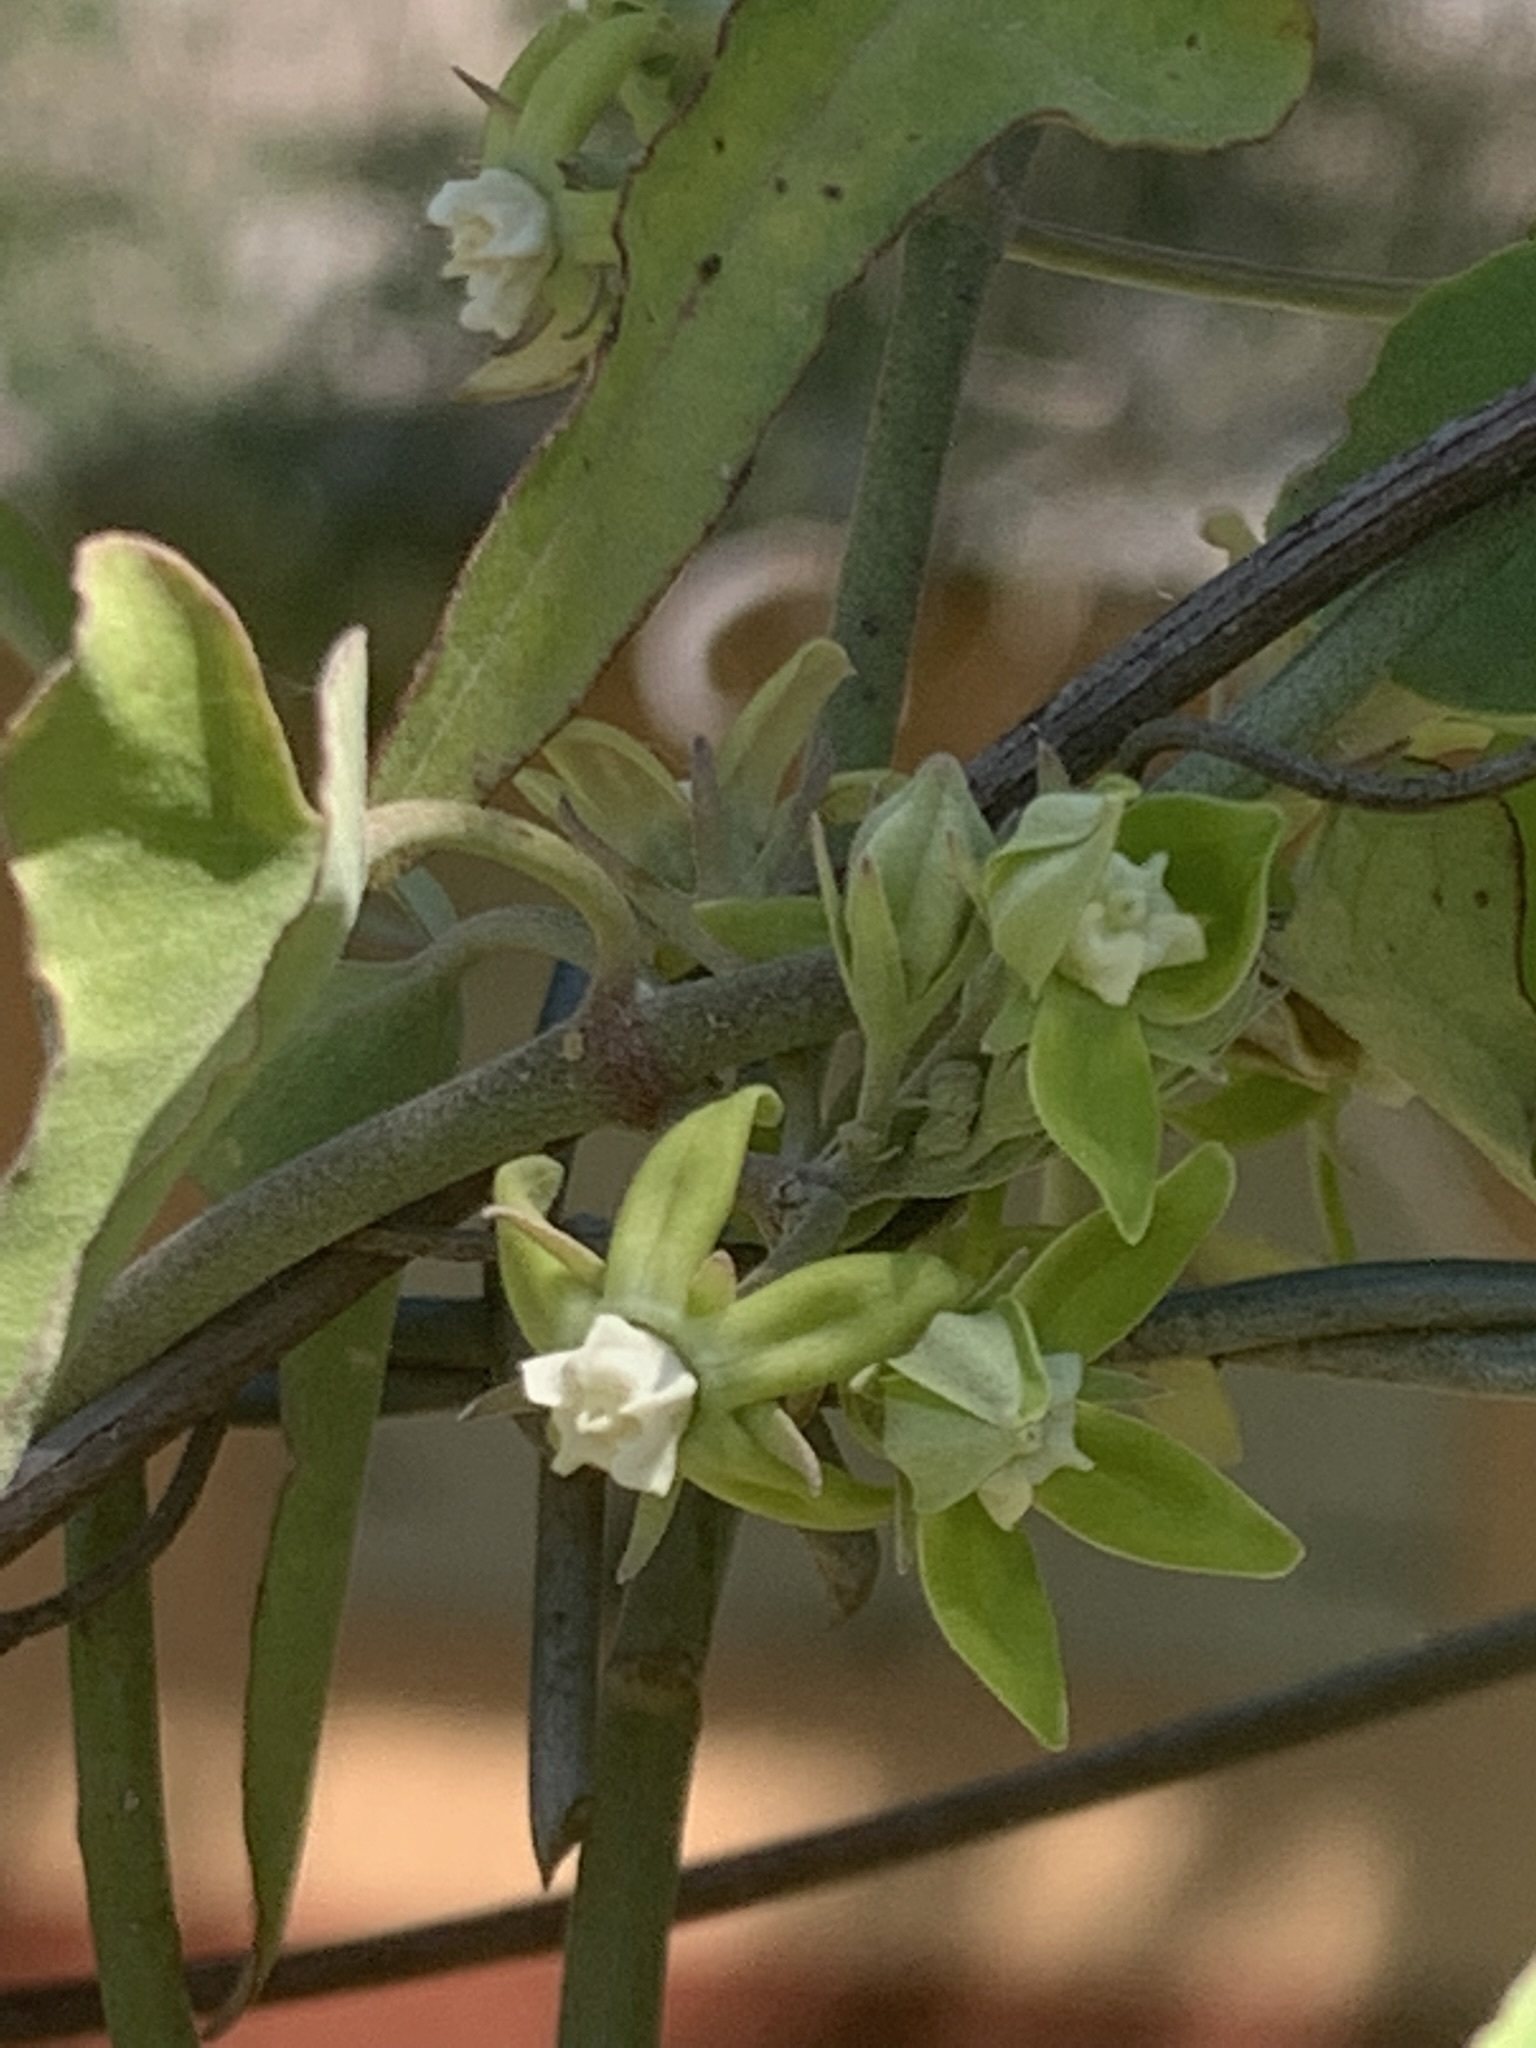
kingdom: Plantae
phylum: Tracheophyta
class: Magnoliopsida
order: Gentianales
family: Apocynaceae
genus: Araujia
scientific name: Araujia brachystephana
